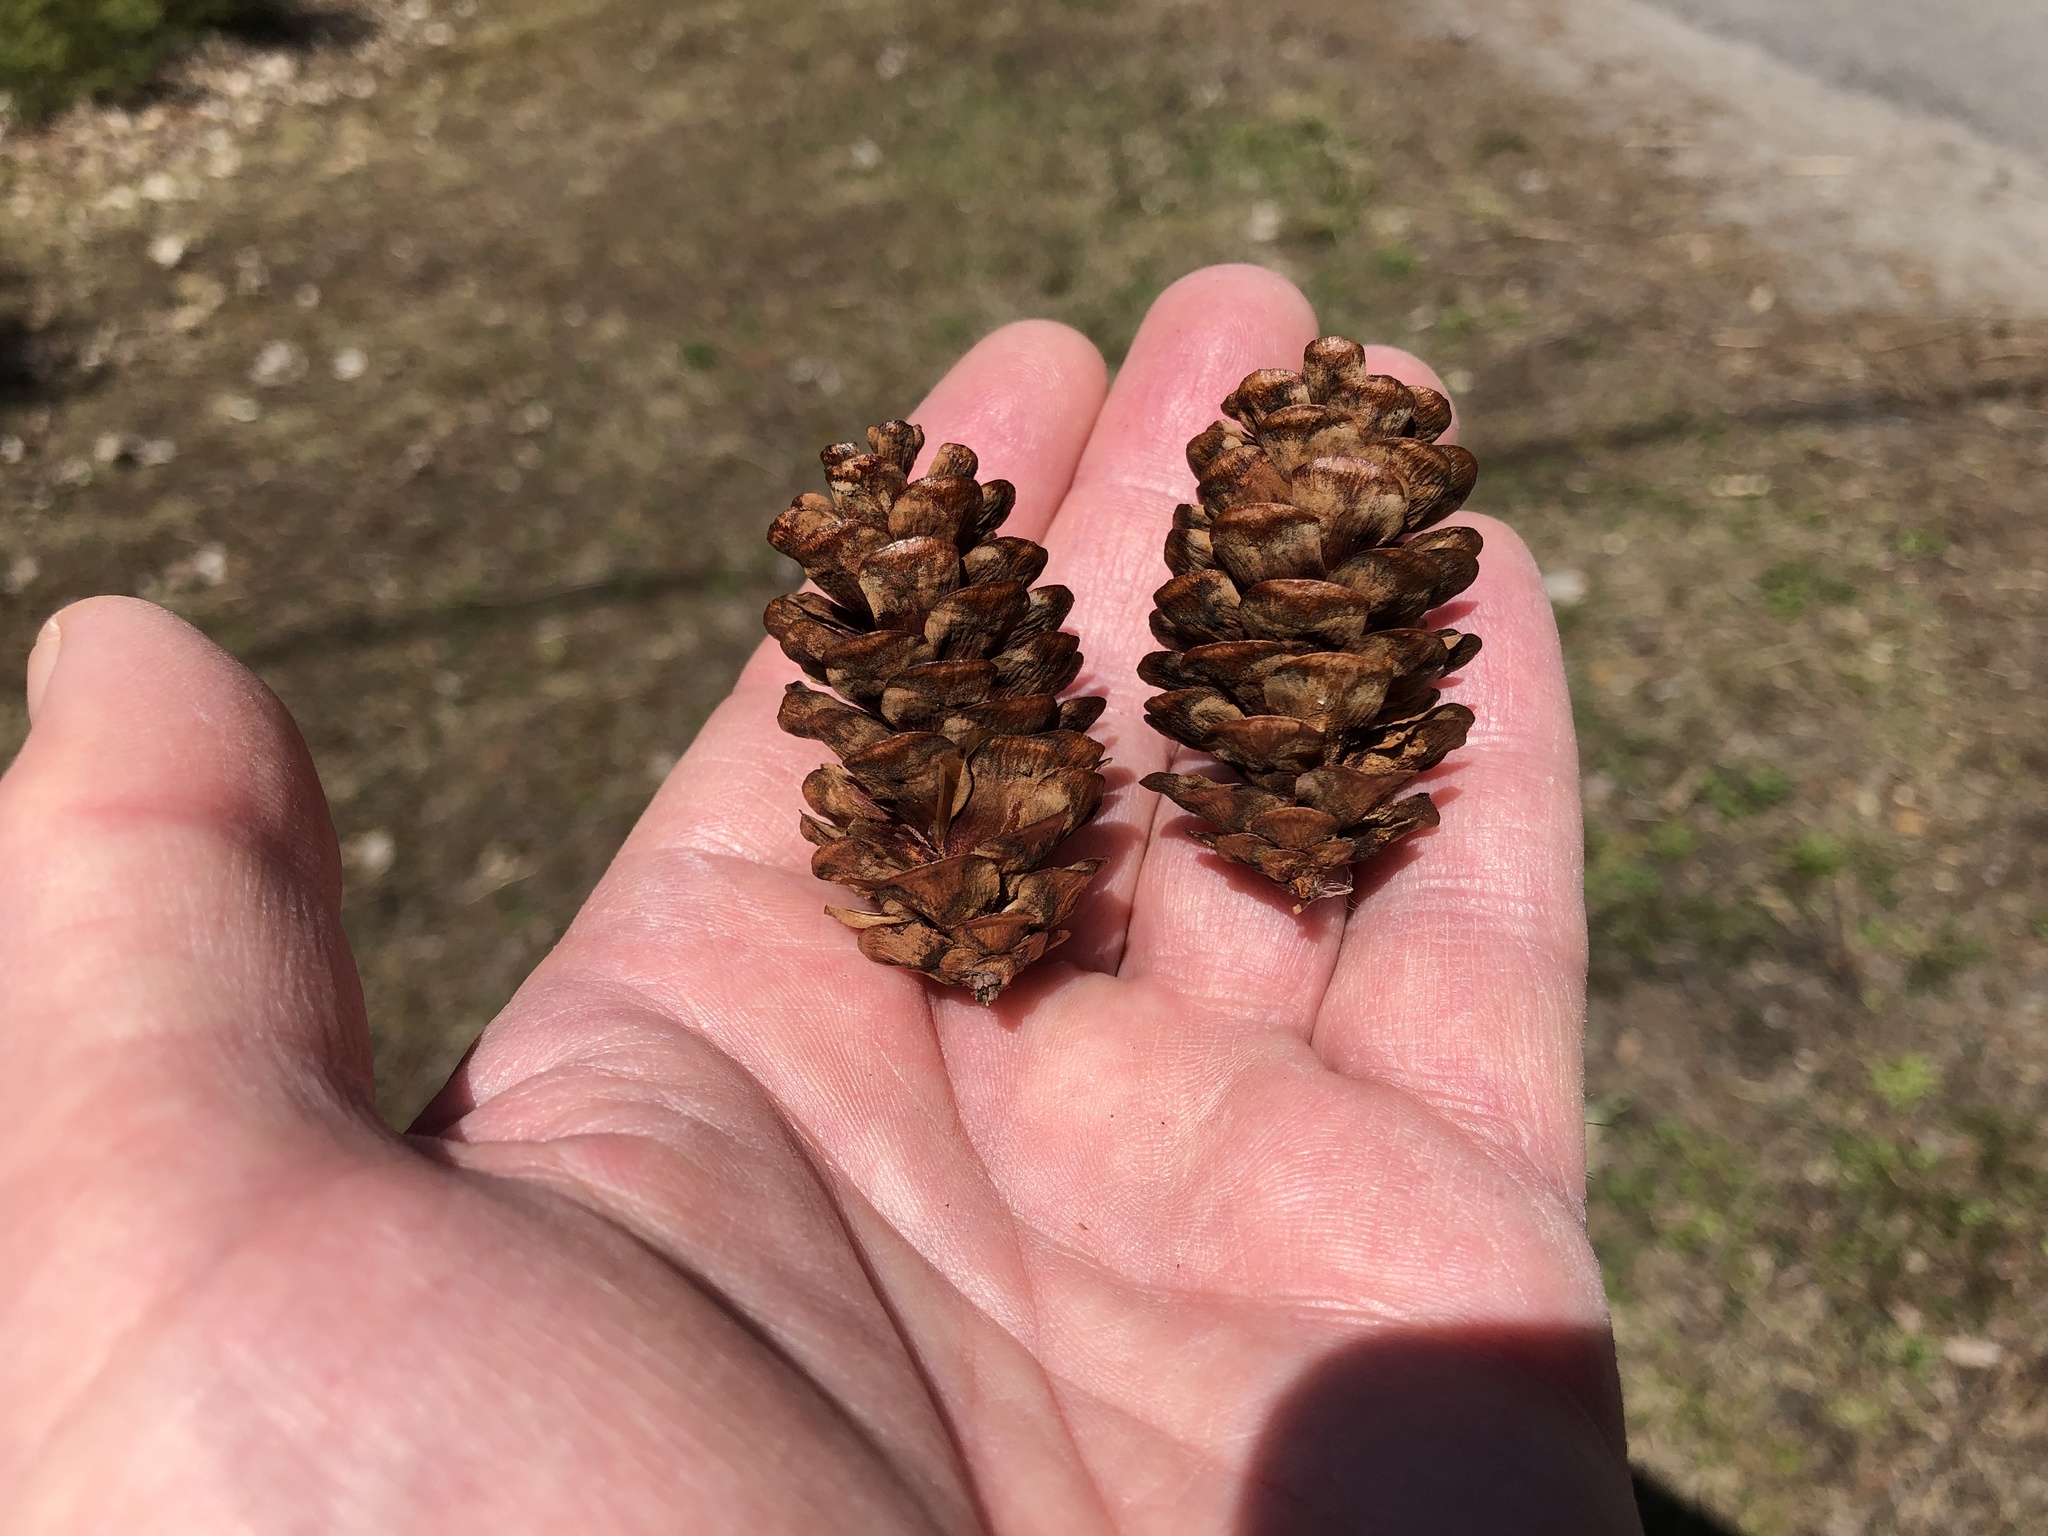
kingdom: Plantae
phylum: Tracheophyta
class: Pinopsida
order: Pinales
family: Pinaceae
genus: Picea
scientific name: Picea glauca
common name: White spruce
